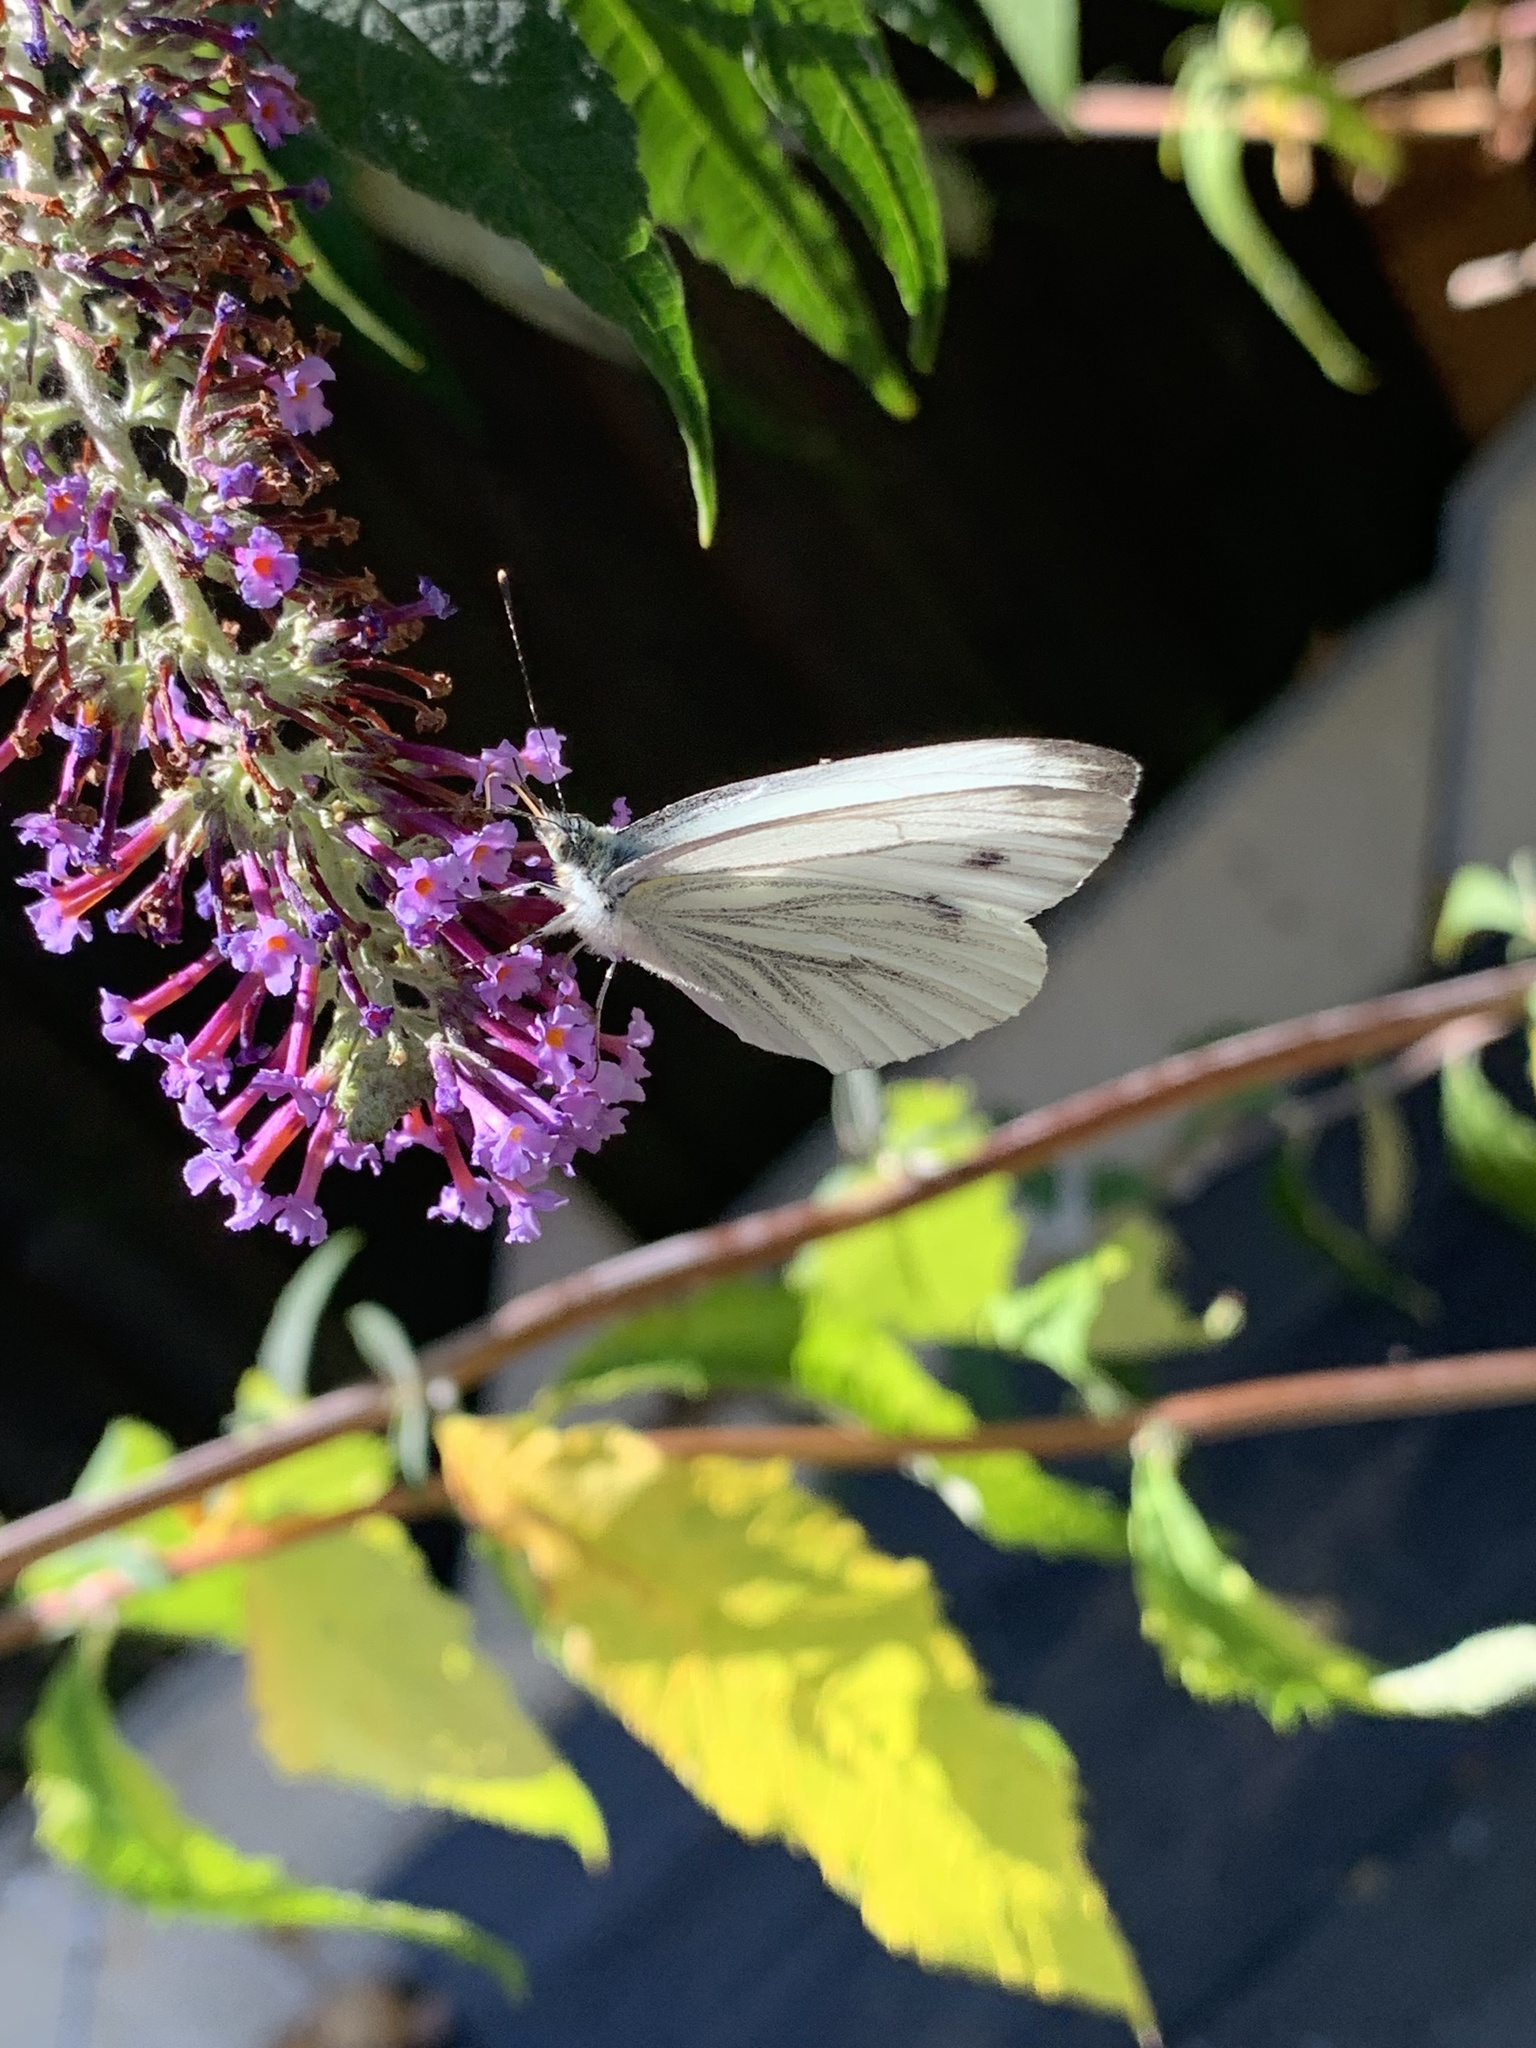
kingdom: Animalia
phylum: Arthropoda
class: Insecta
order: Lepidoptera
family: Pieridae
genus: Pieris
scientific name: Pieris napi
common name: Green-veined white
